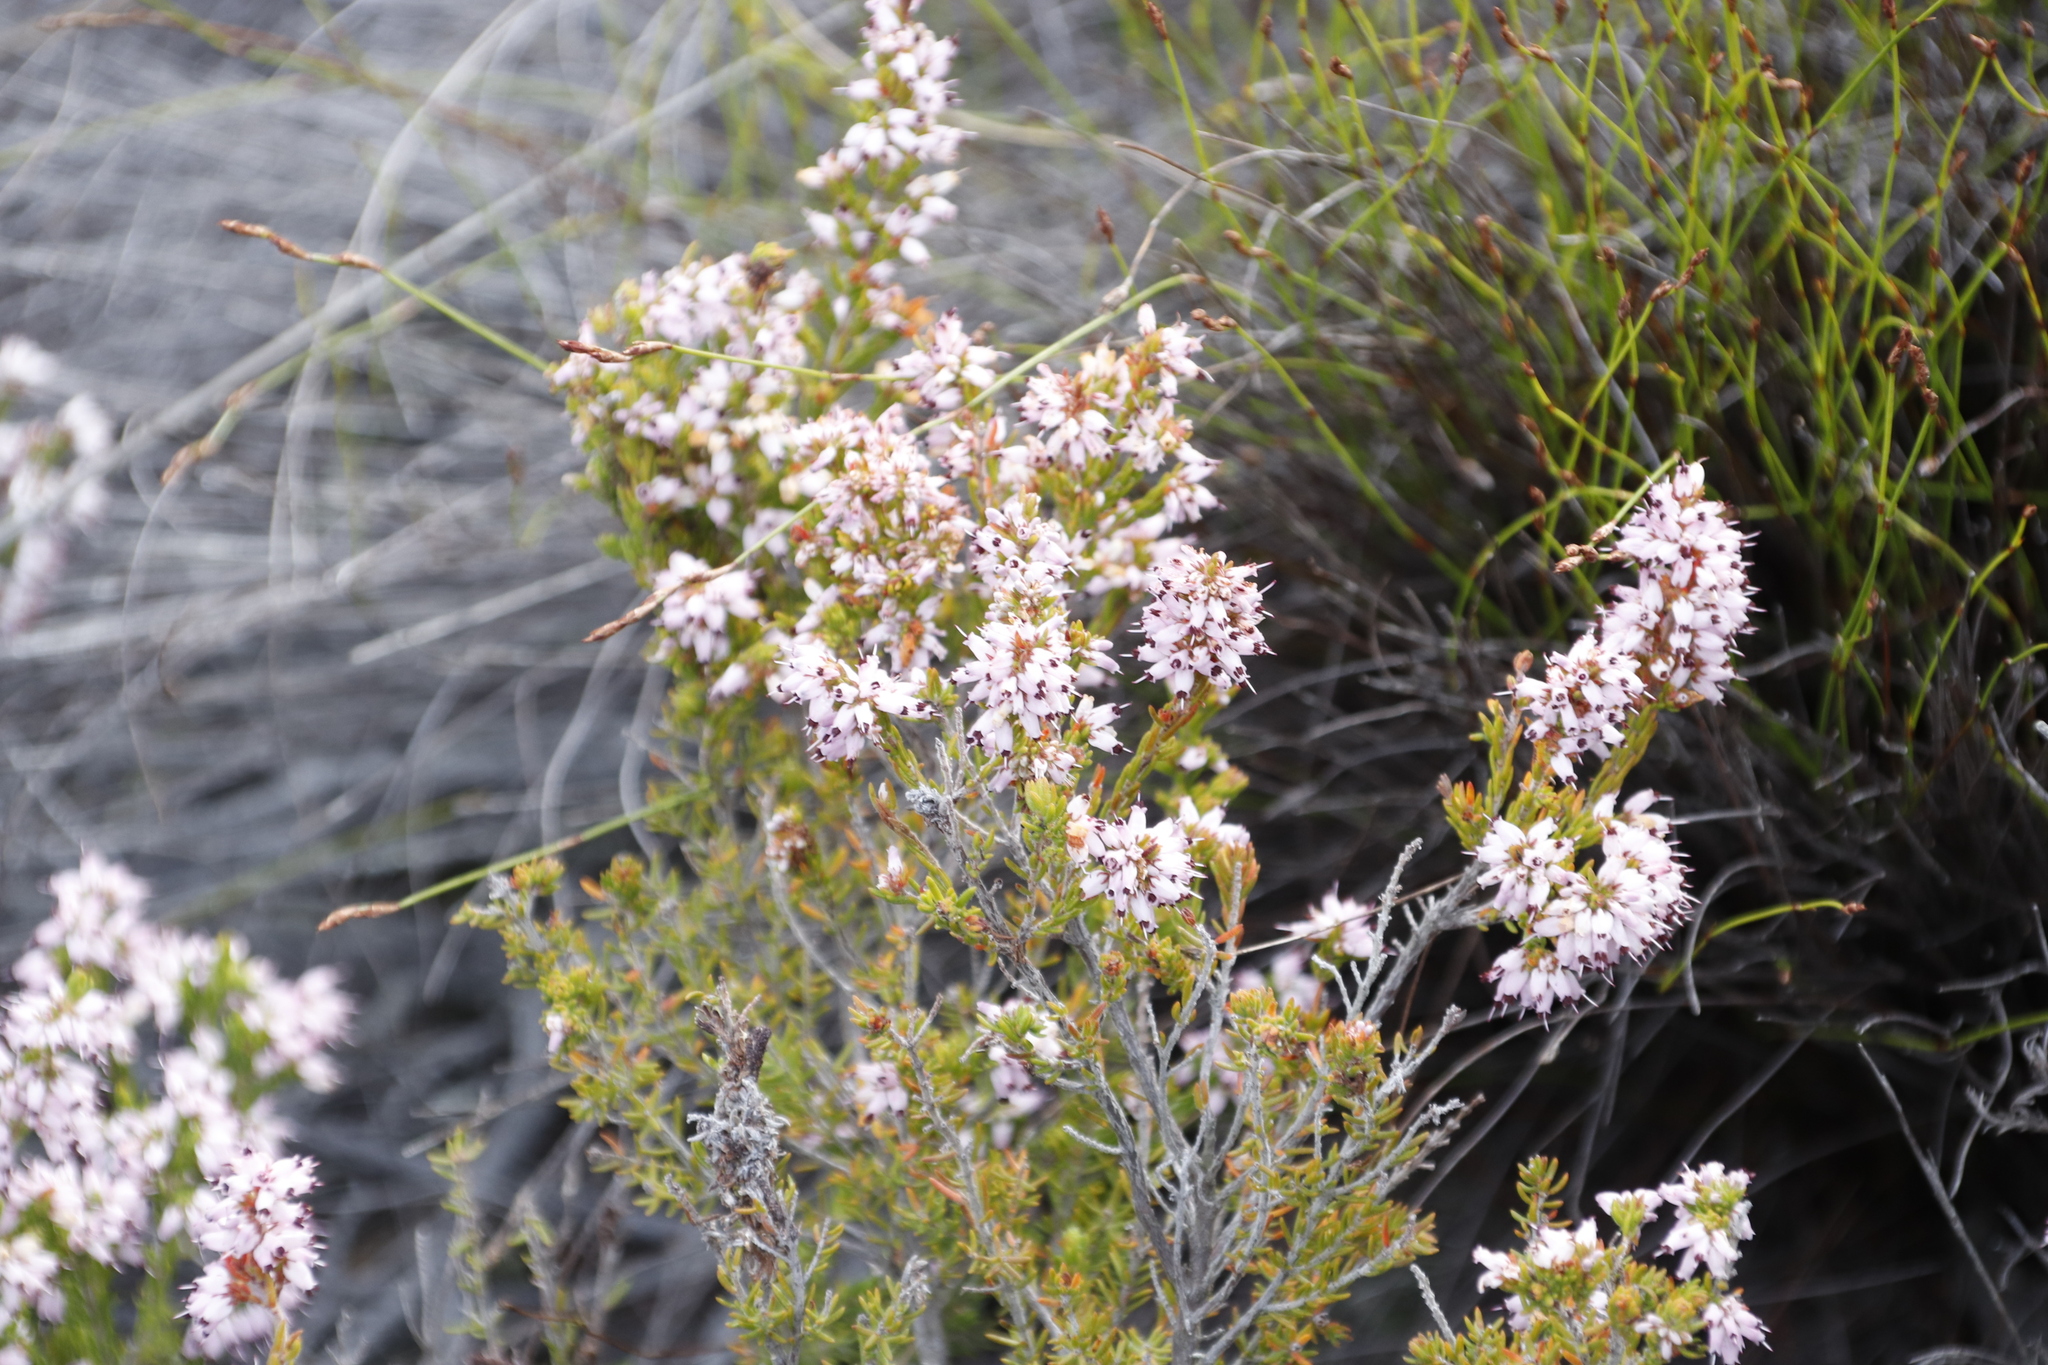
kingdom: Plantae
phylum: Tracheophyta
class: Magnoliopsida
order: Ericales
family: Ericaceae
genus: Erica
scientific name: Erica nudiflora
